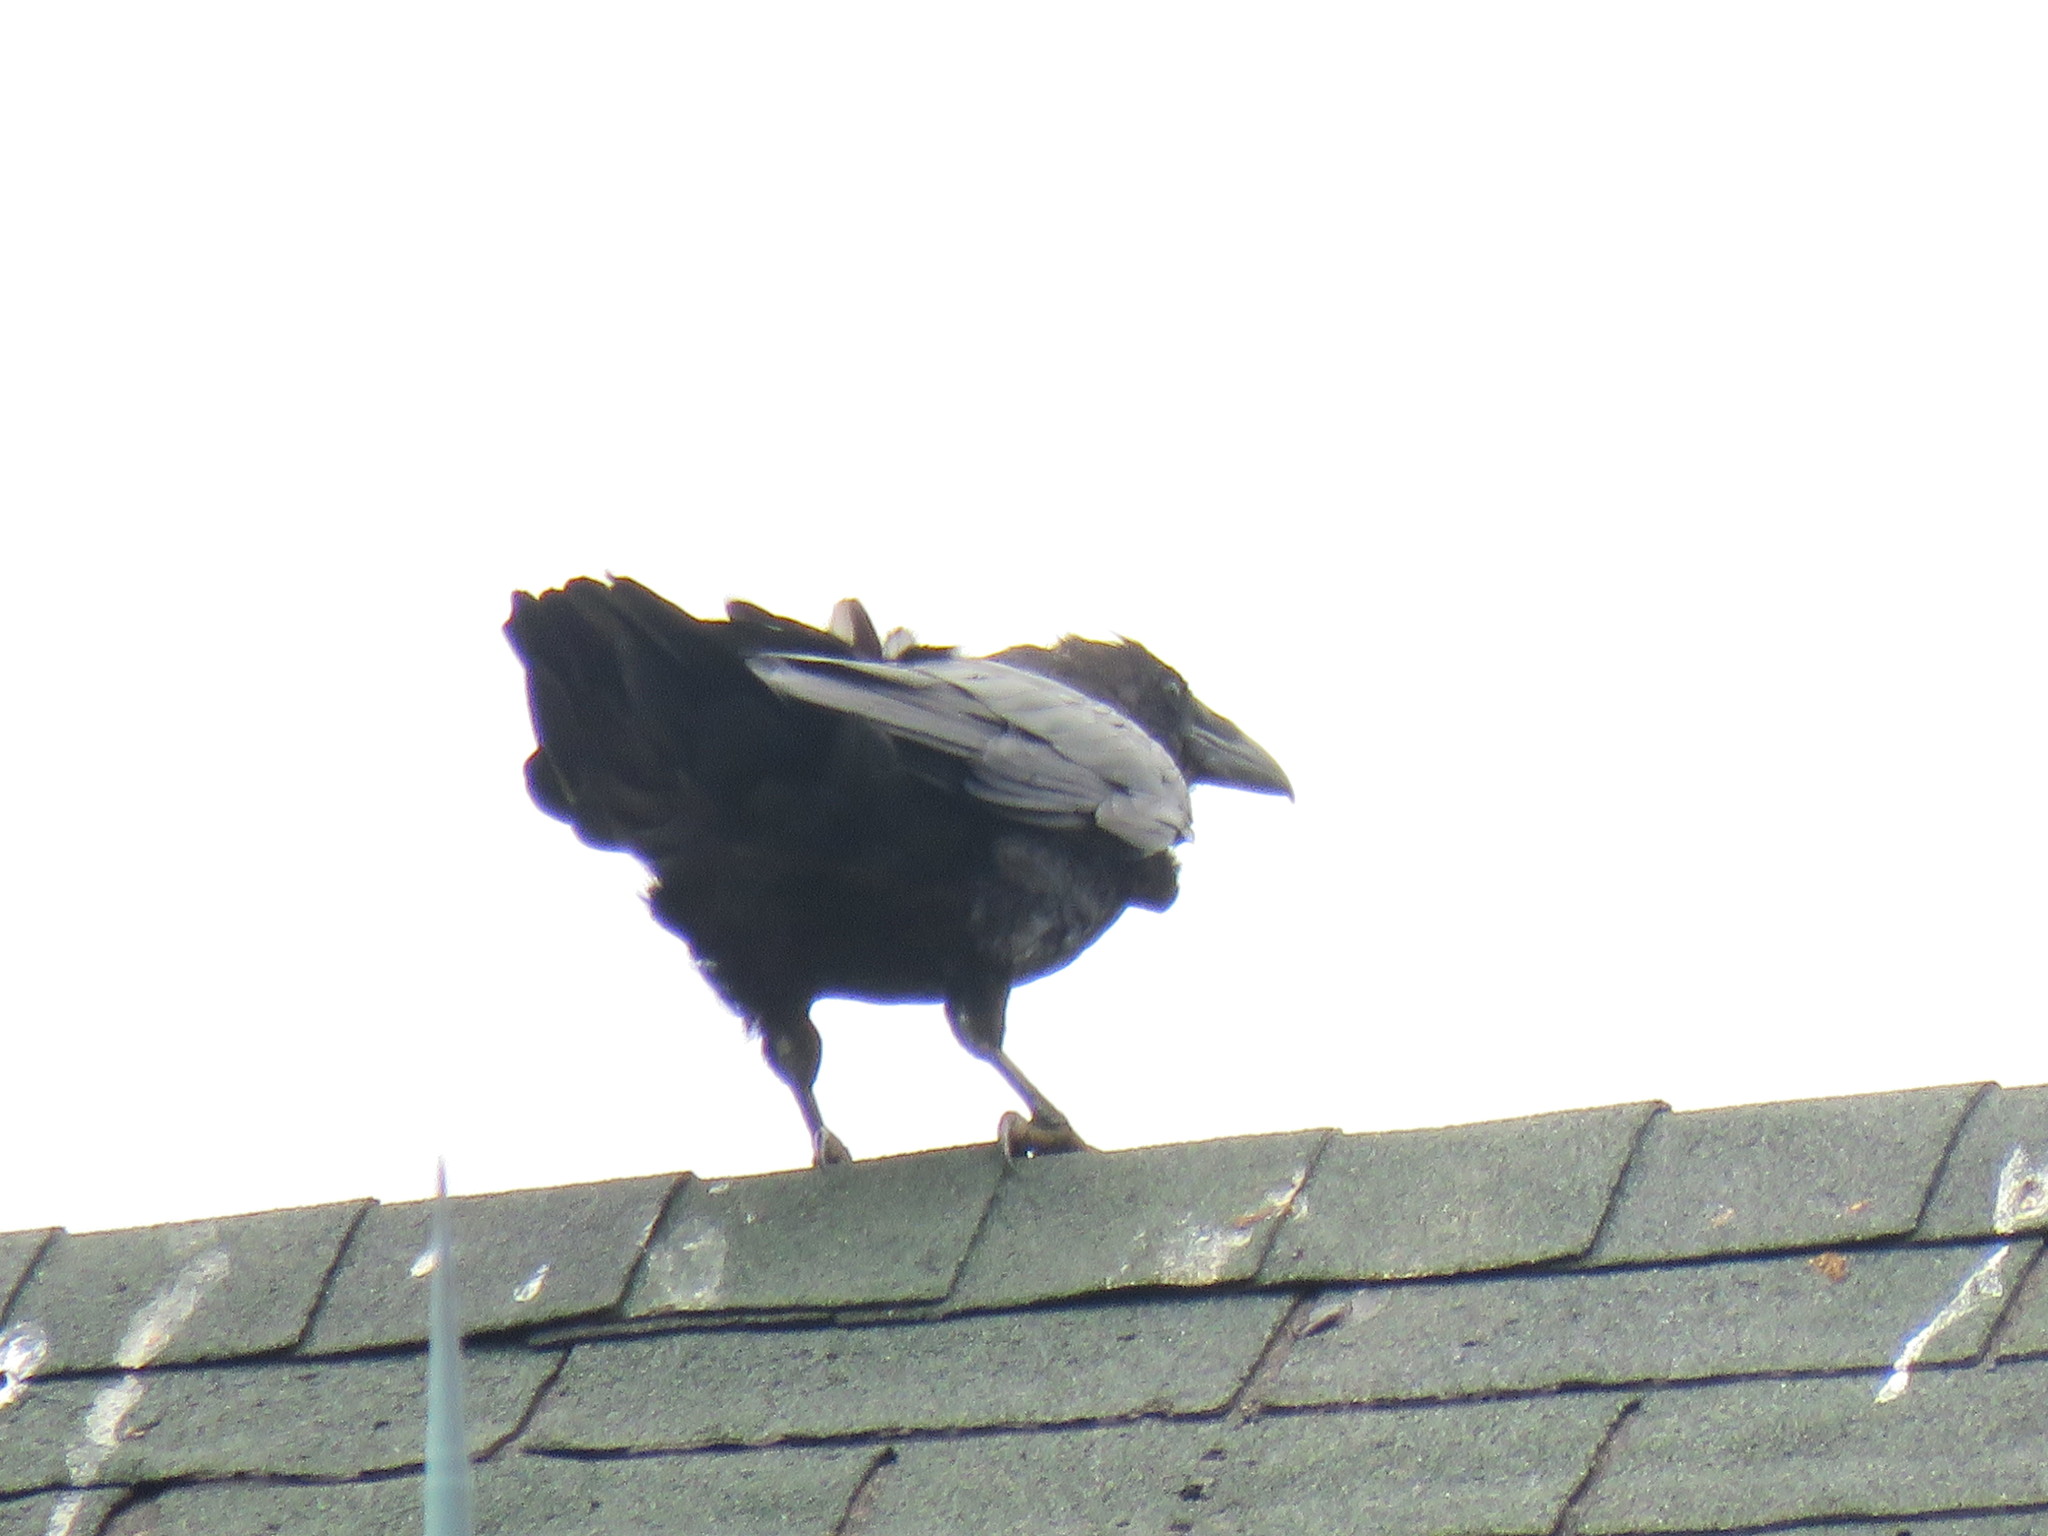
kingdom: Animalia
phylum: Chordata
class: Aves
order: Passeriformes
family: Corvidae
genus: Corvus
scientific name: Corvus corax
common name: Common raven
